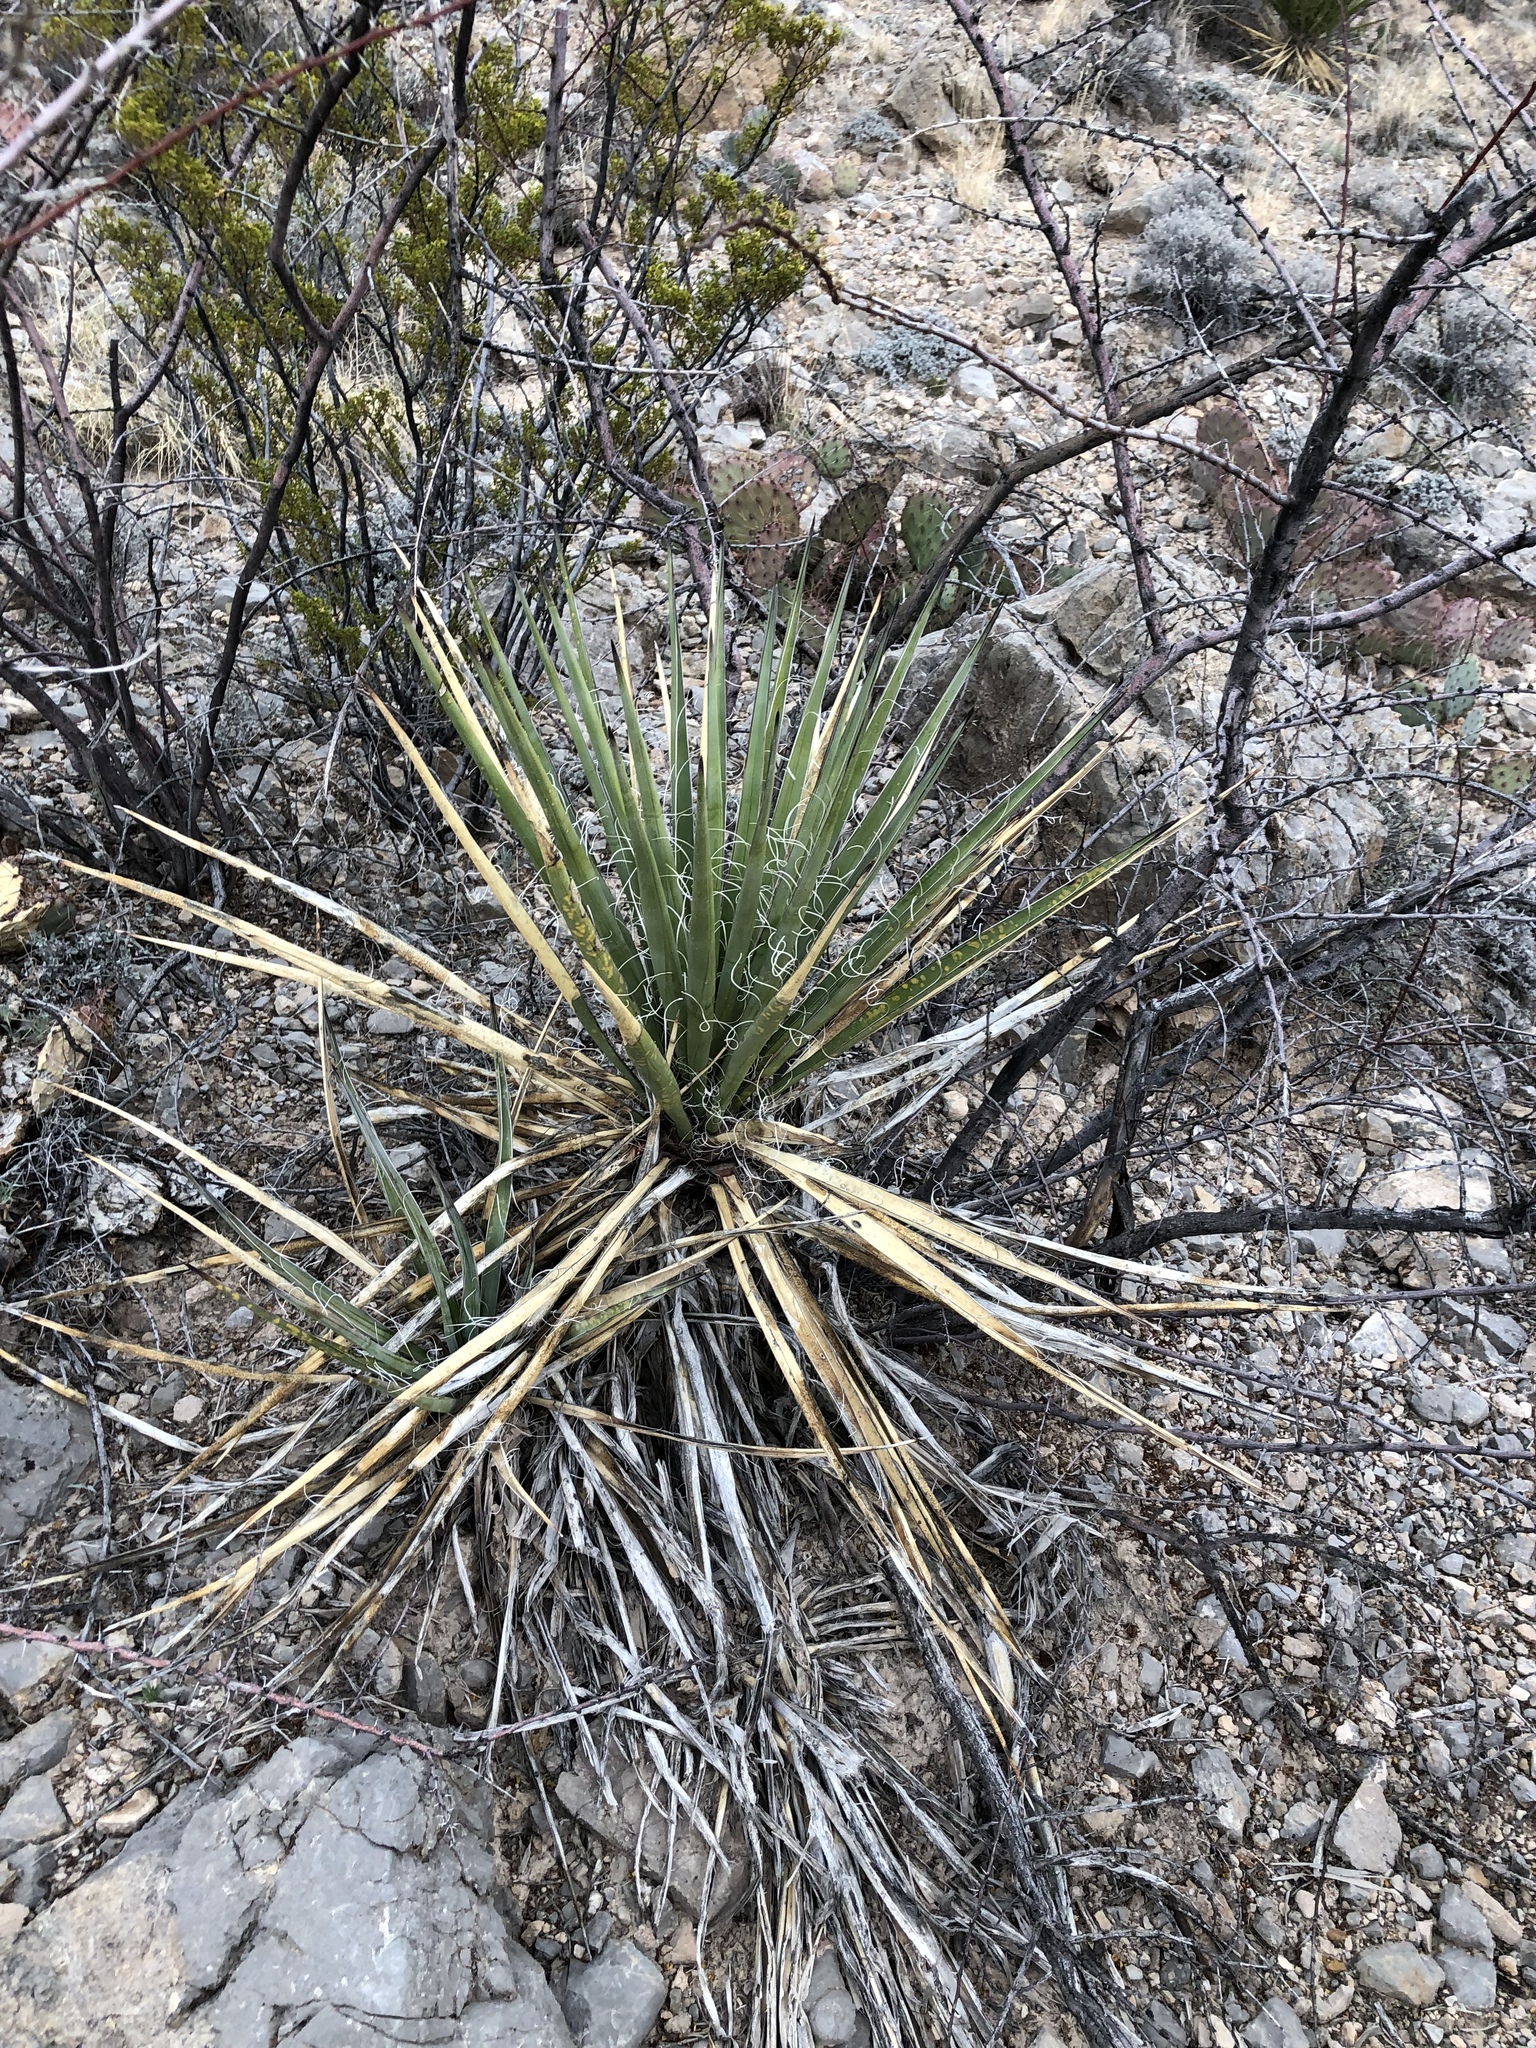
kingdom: Plantae
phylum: Tracheophyta
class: Liliopsida
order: Asparagales
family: Asparagaceae
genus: Yucca
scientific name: Yucca baccata
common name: Banana yucca
